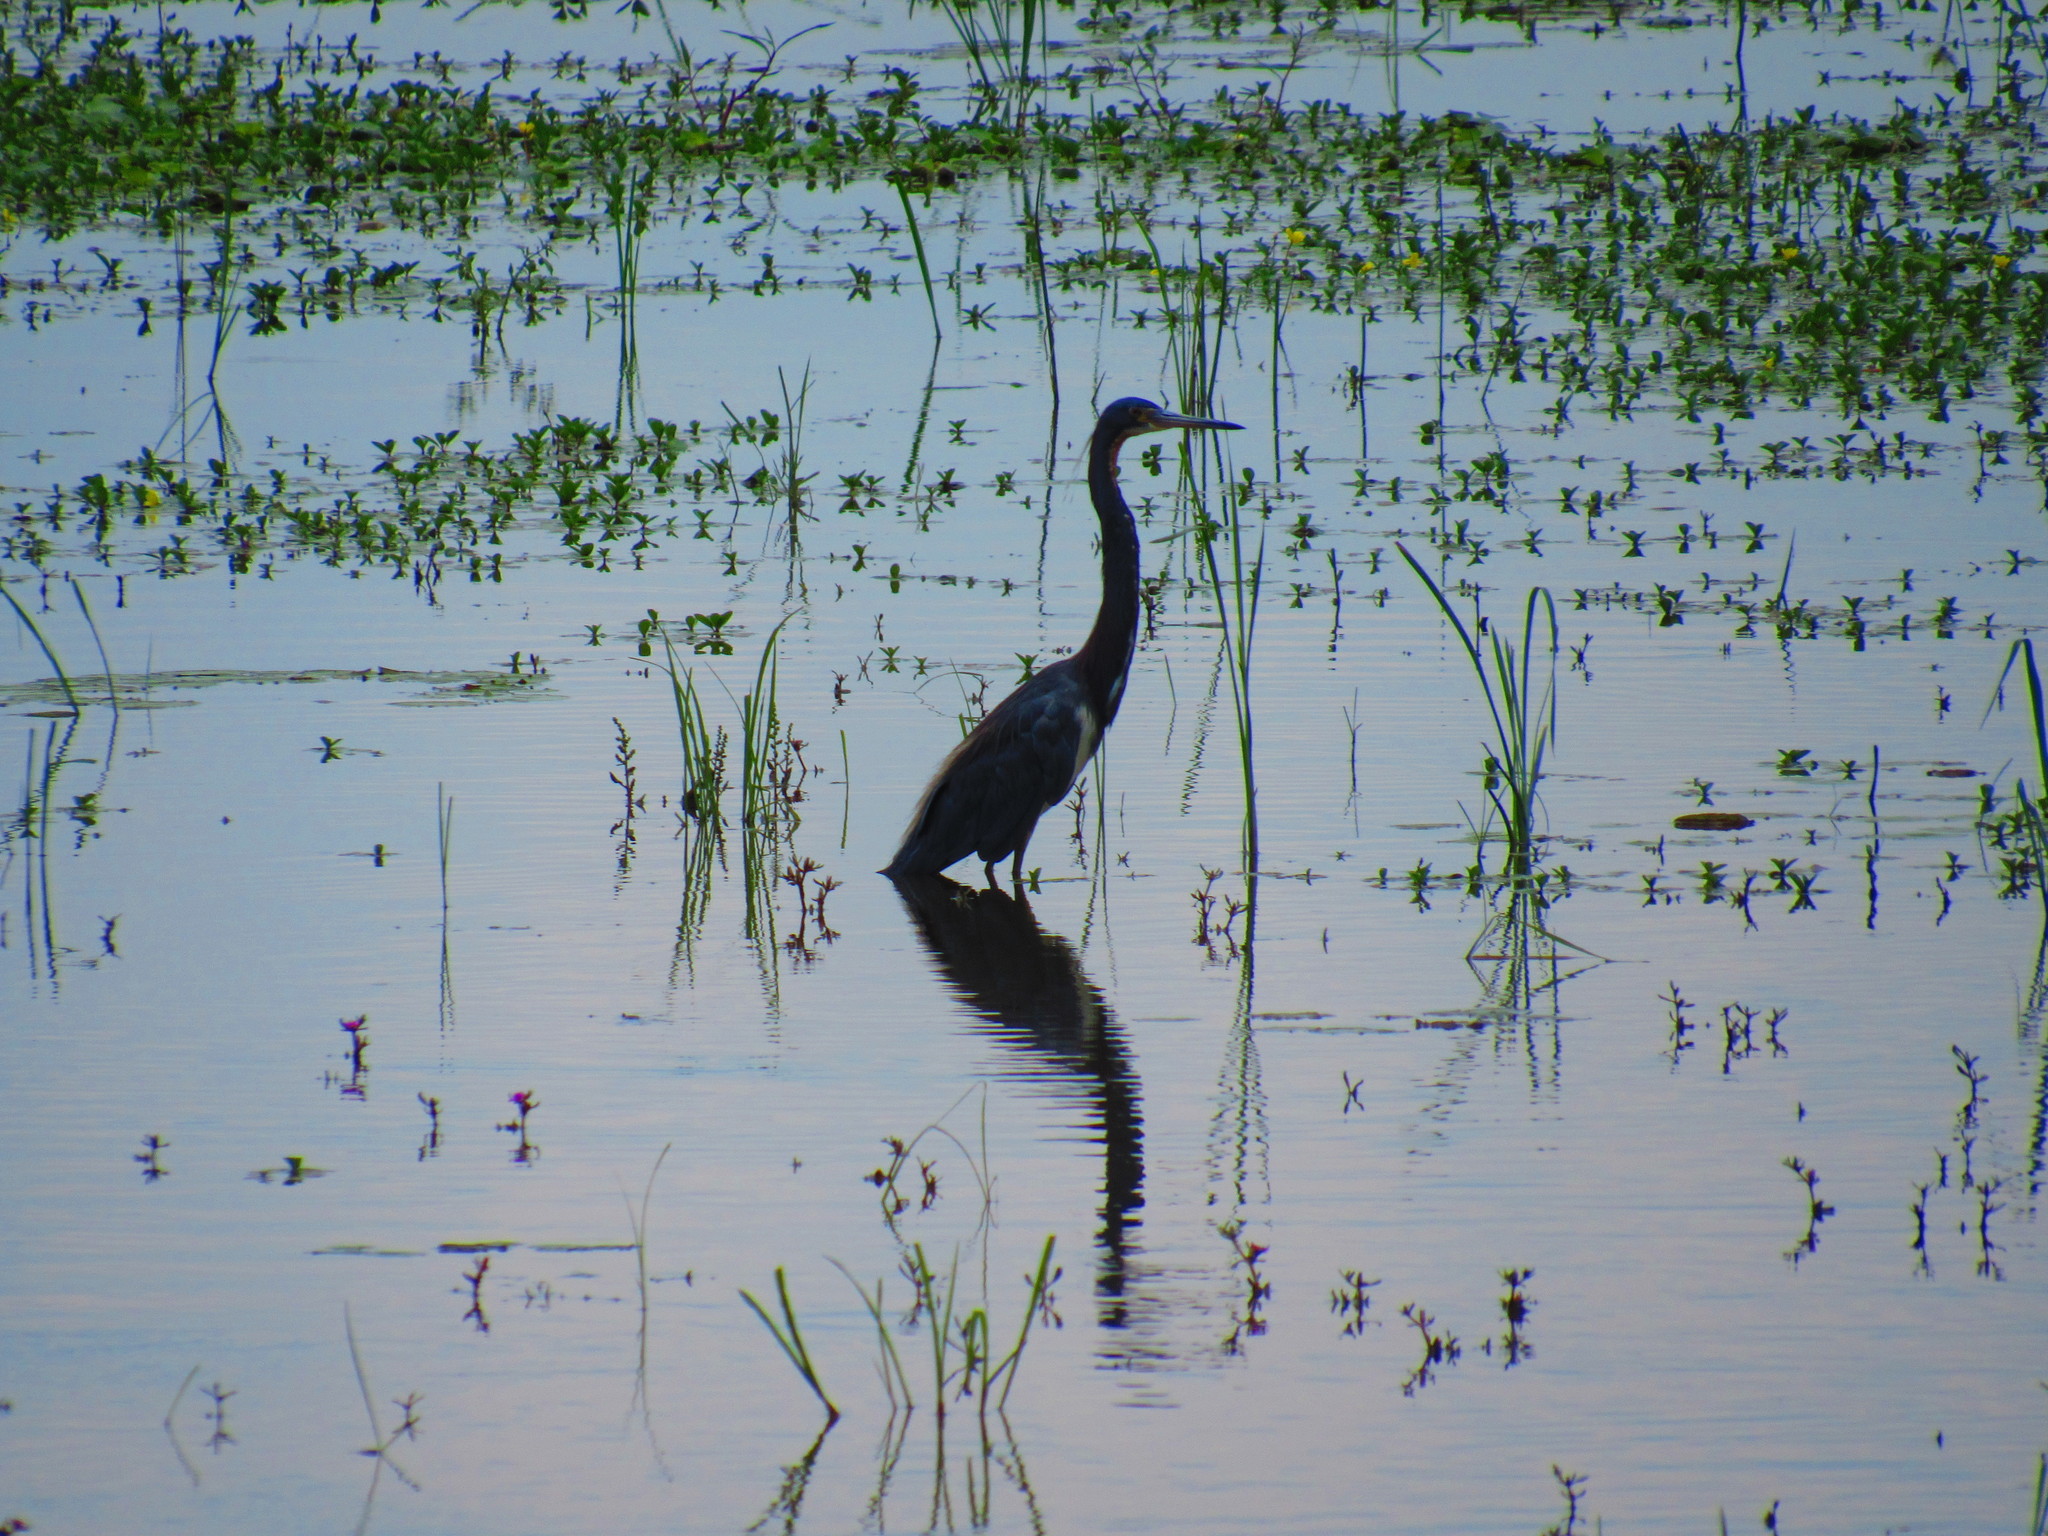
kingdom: Animalia
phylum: Chordata
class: Aves
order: Pelecaniformes
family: Ardeidae
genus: Egretta
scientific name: Egretta tricolor
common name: Tricolored heron
